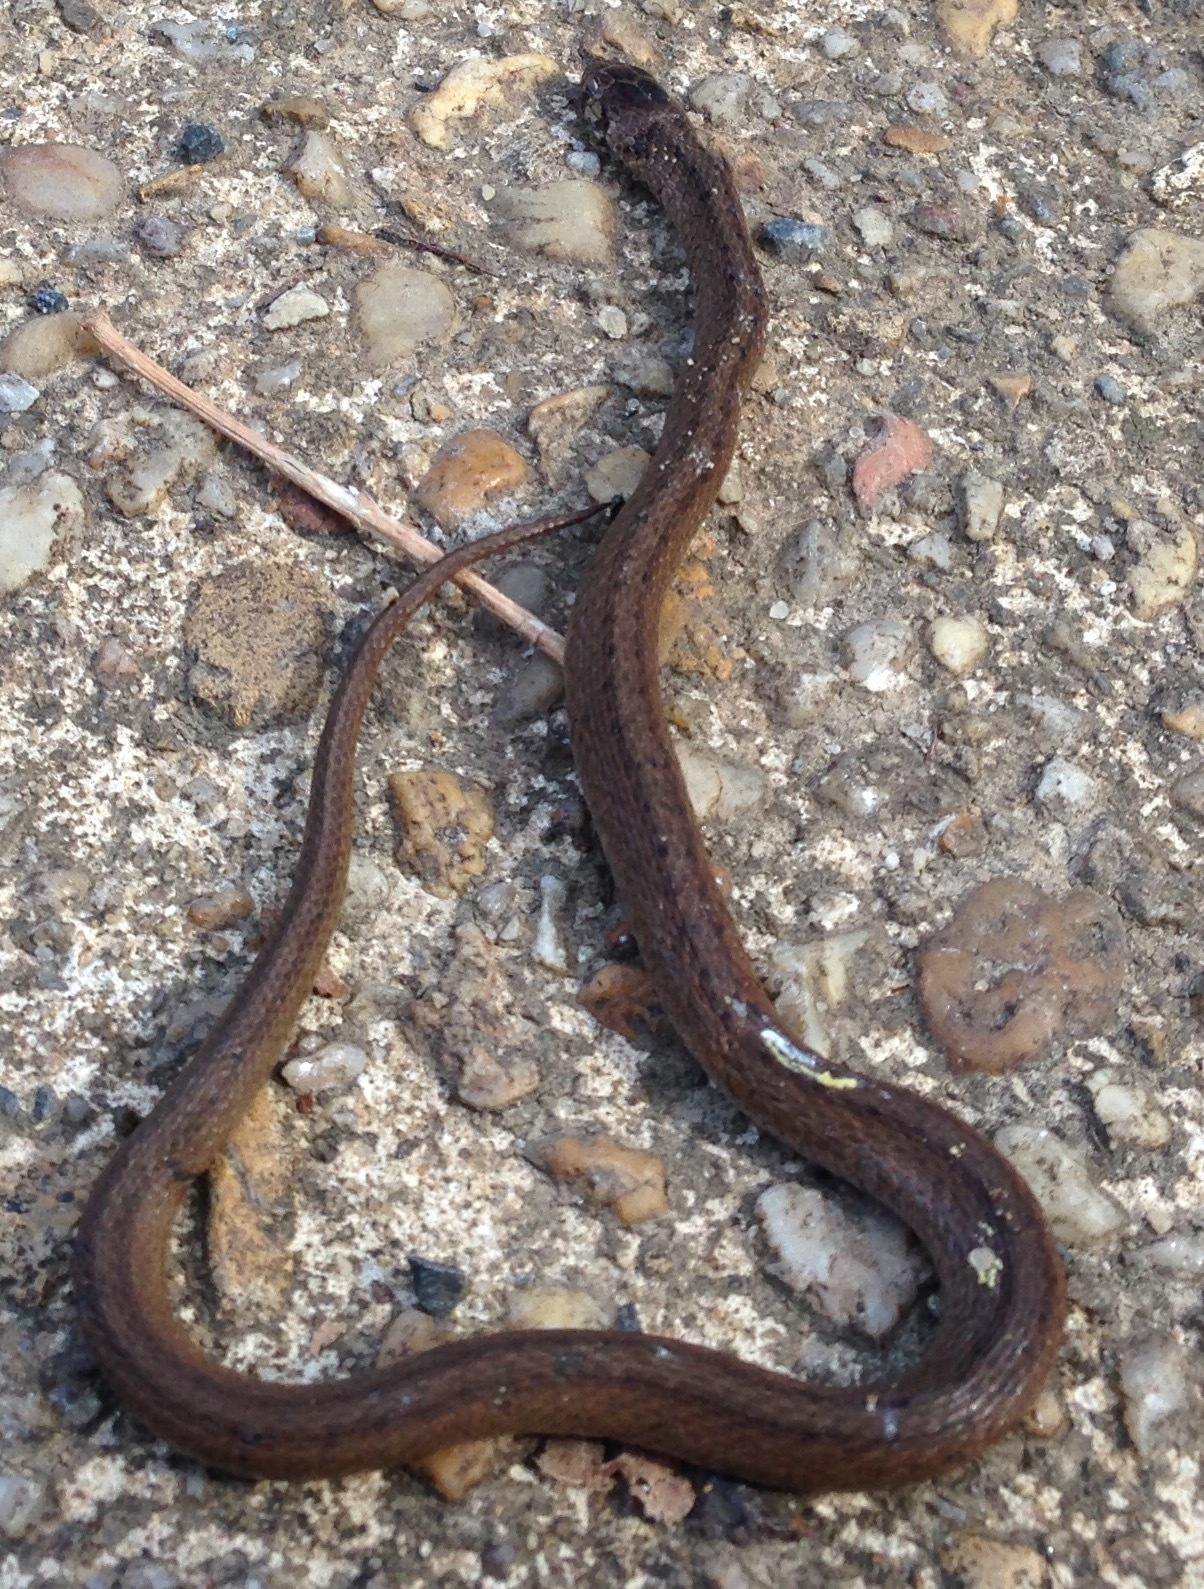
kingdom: Animalia
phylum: Chordata
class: Squamata
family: Colubridae
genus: Storeria
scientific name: Storeria dekayi
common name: (dekay’s) brown snake
